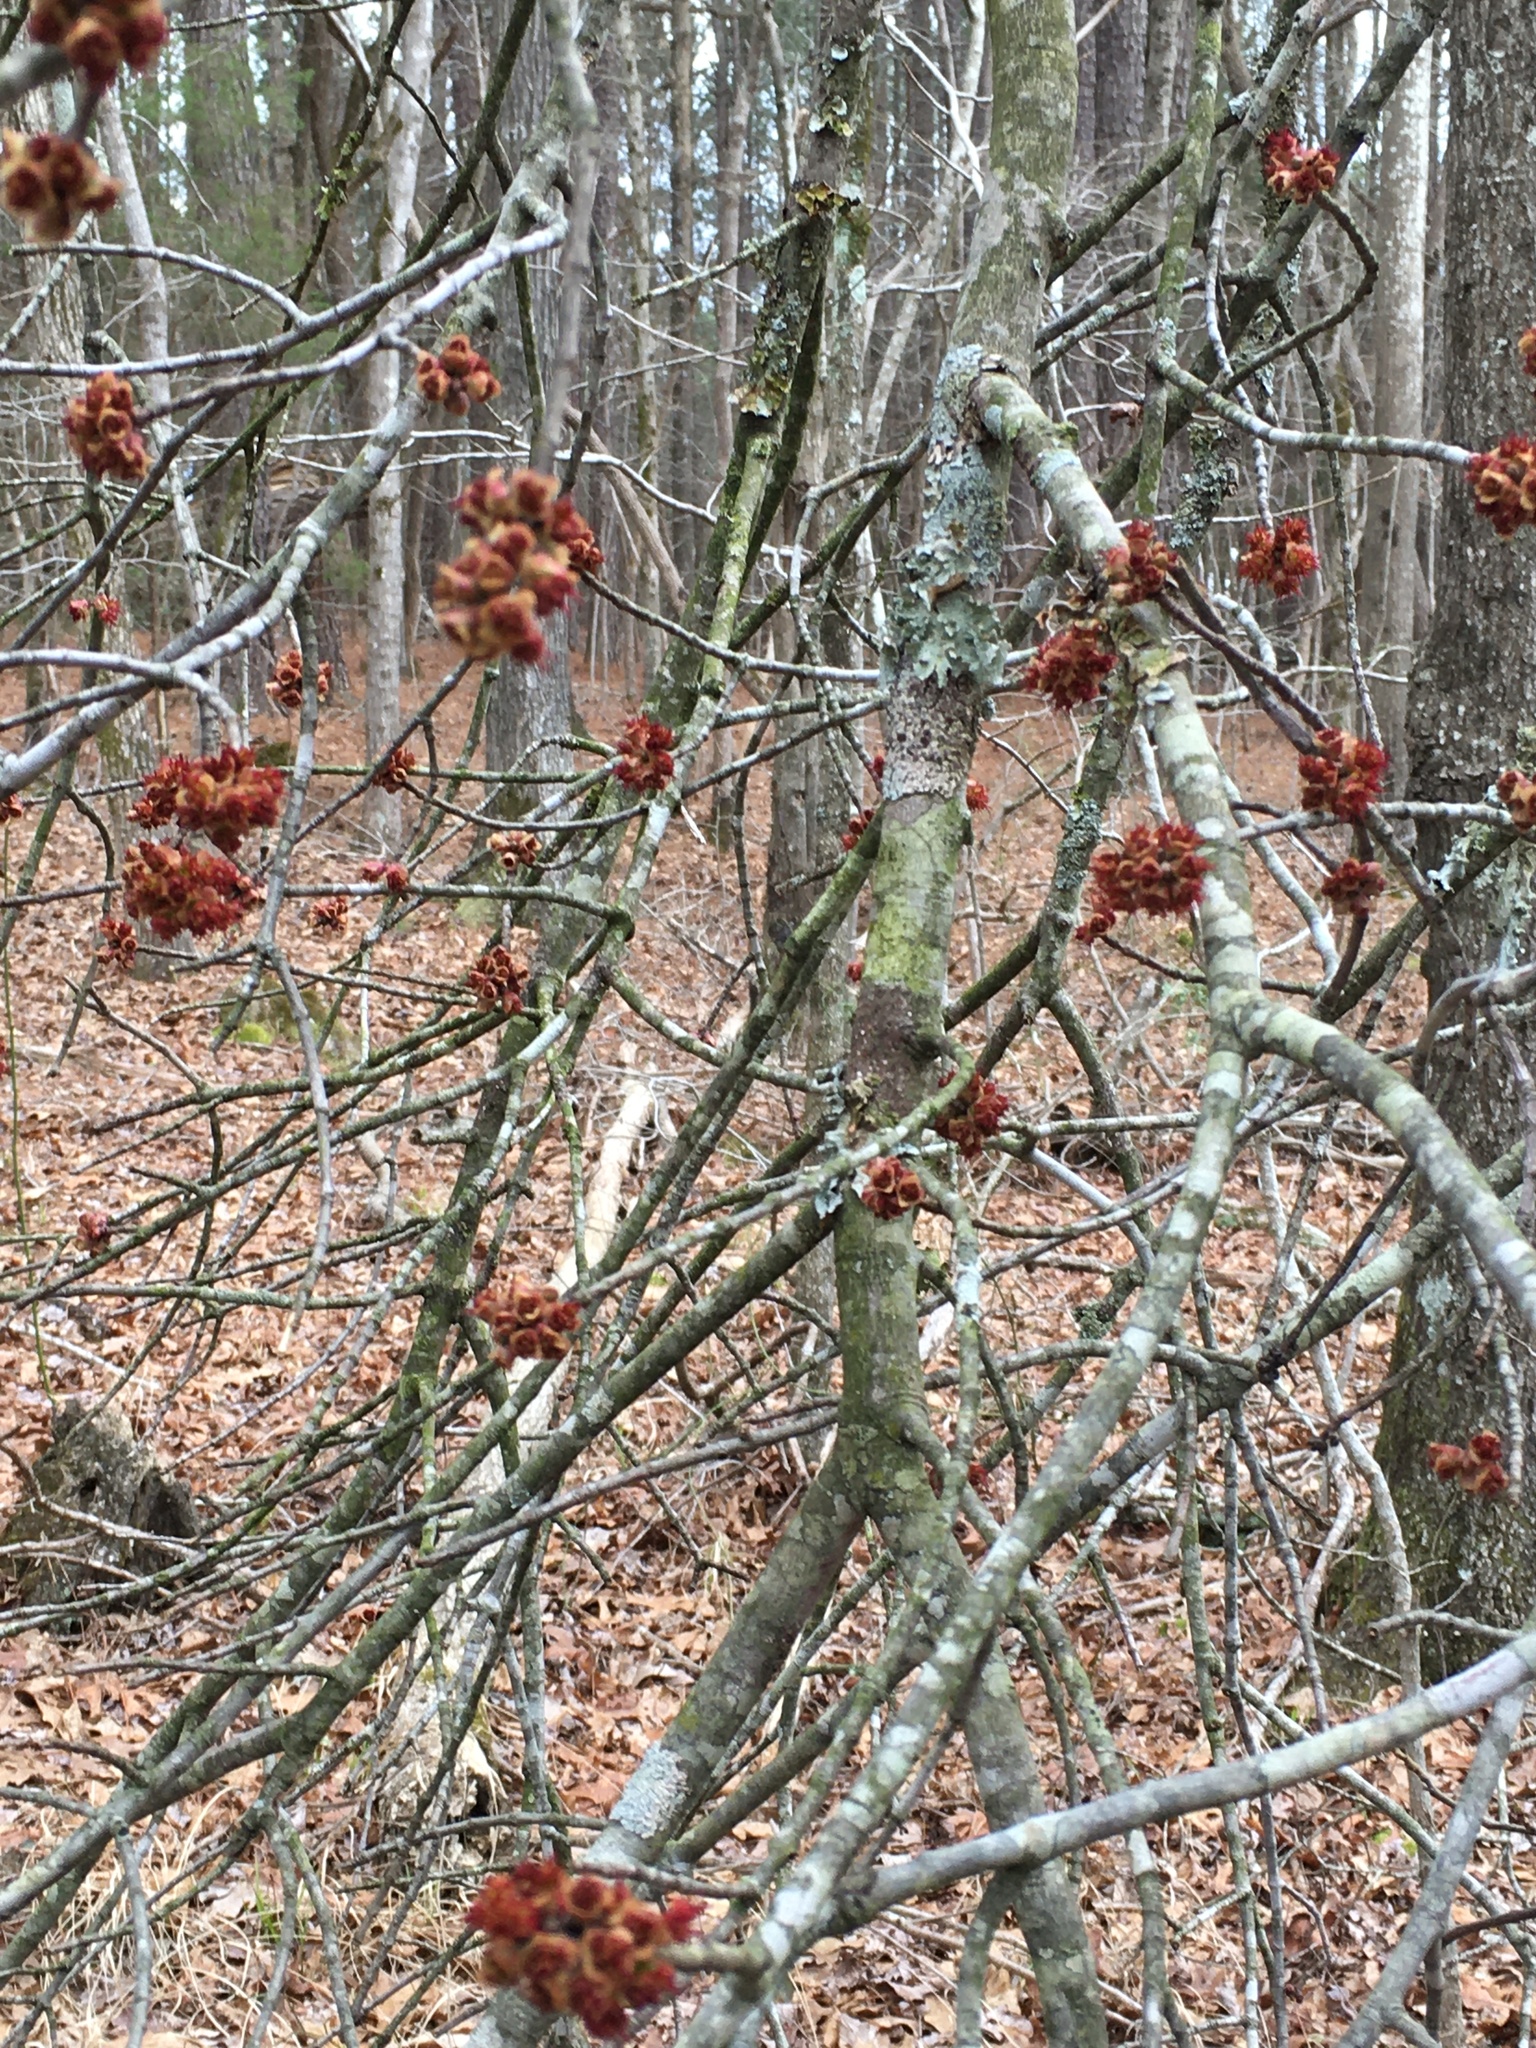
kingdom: Plantae
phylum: Tracheophyta
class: Magnoliopsida
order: Sapindales
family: Sapindaceae
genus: Acer
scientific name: Acer rubrum
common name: Red maple
